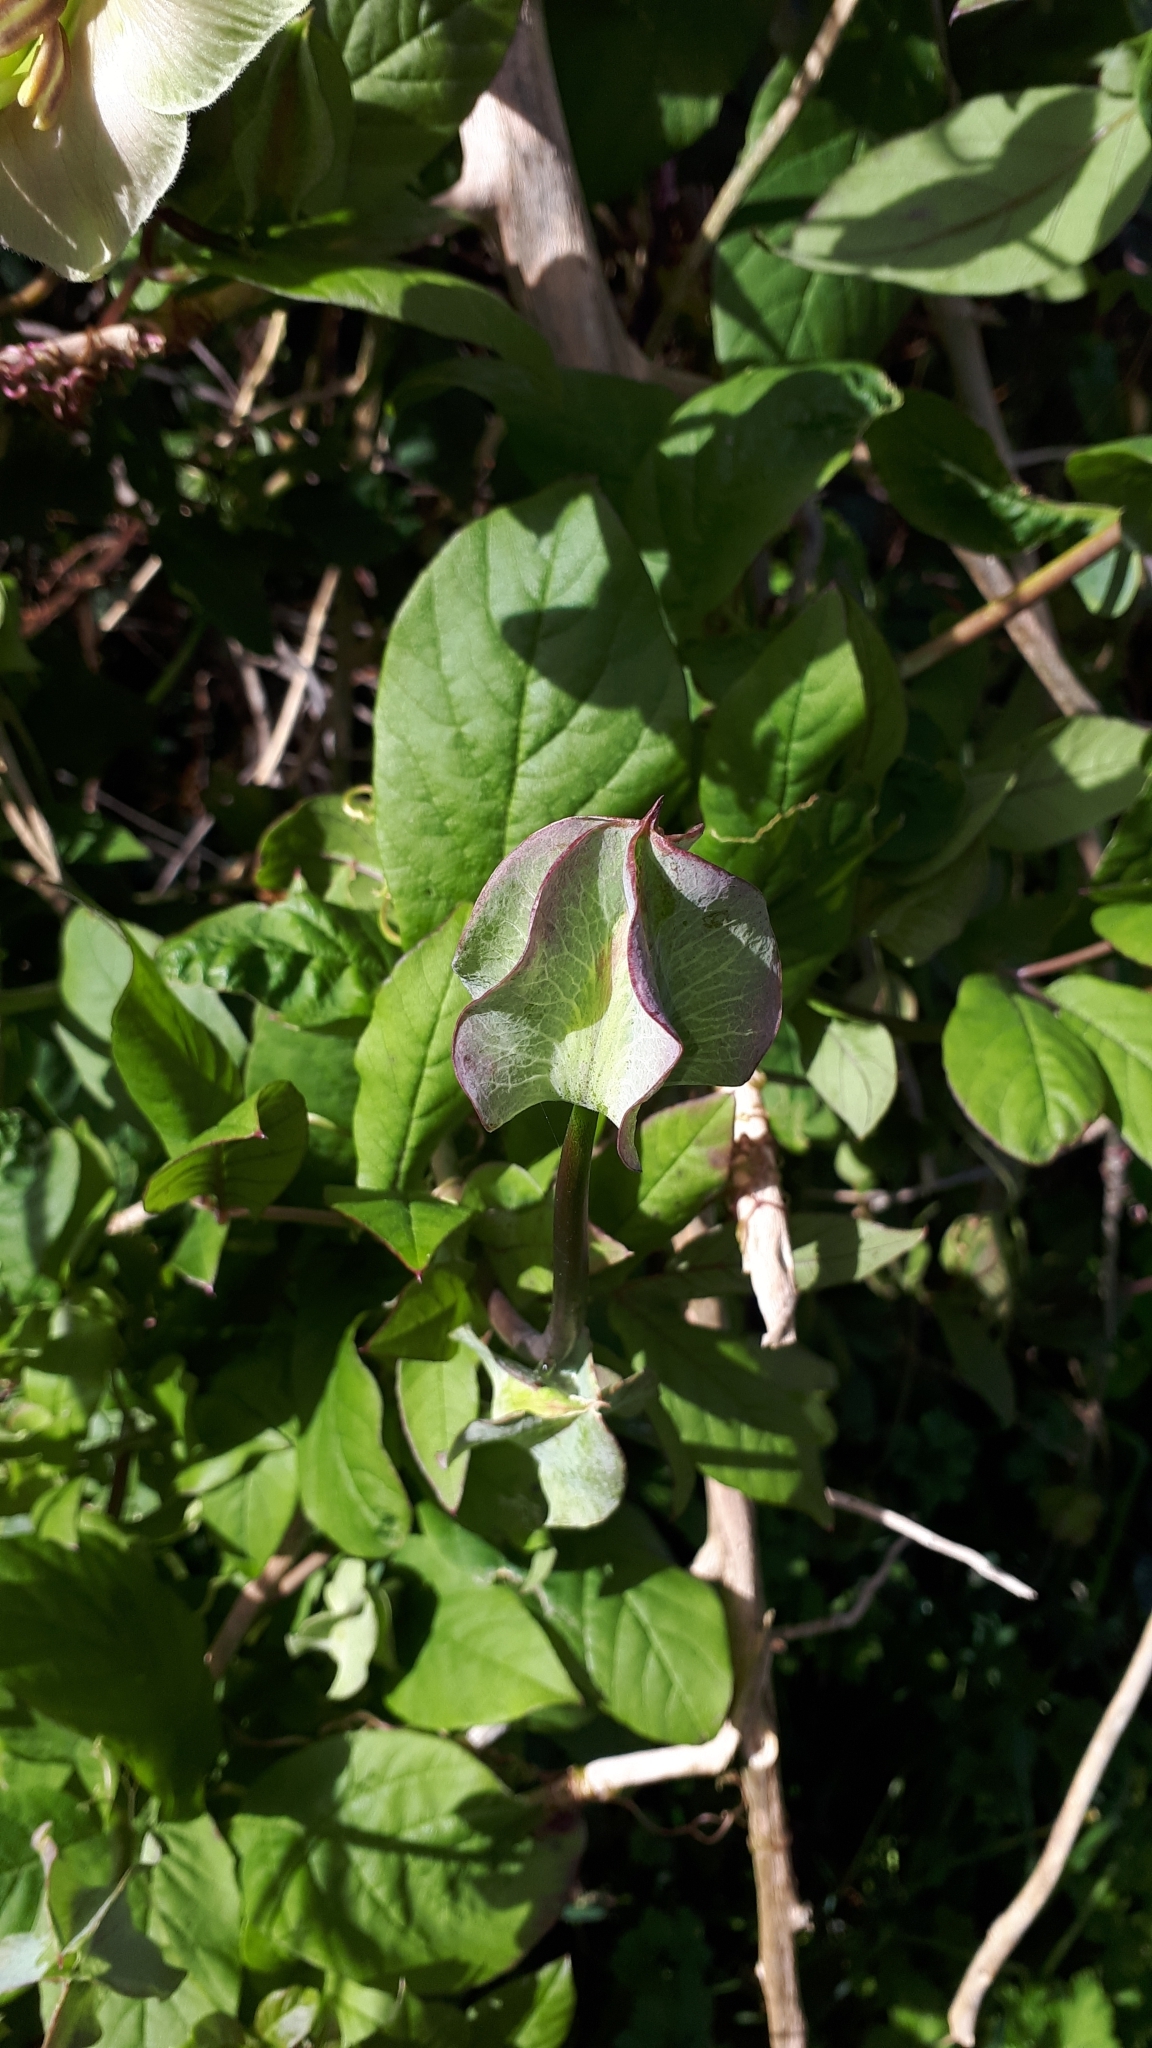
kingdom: Plantae
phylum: Tracheophyta
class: Magnoliopsida
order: Ericales
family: Polemoniaceae
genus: Cobaea
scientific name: Cobaea scandens
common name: Cup-and-saucer-vine
